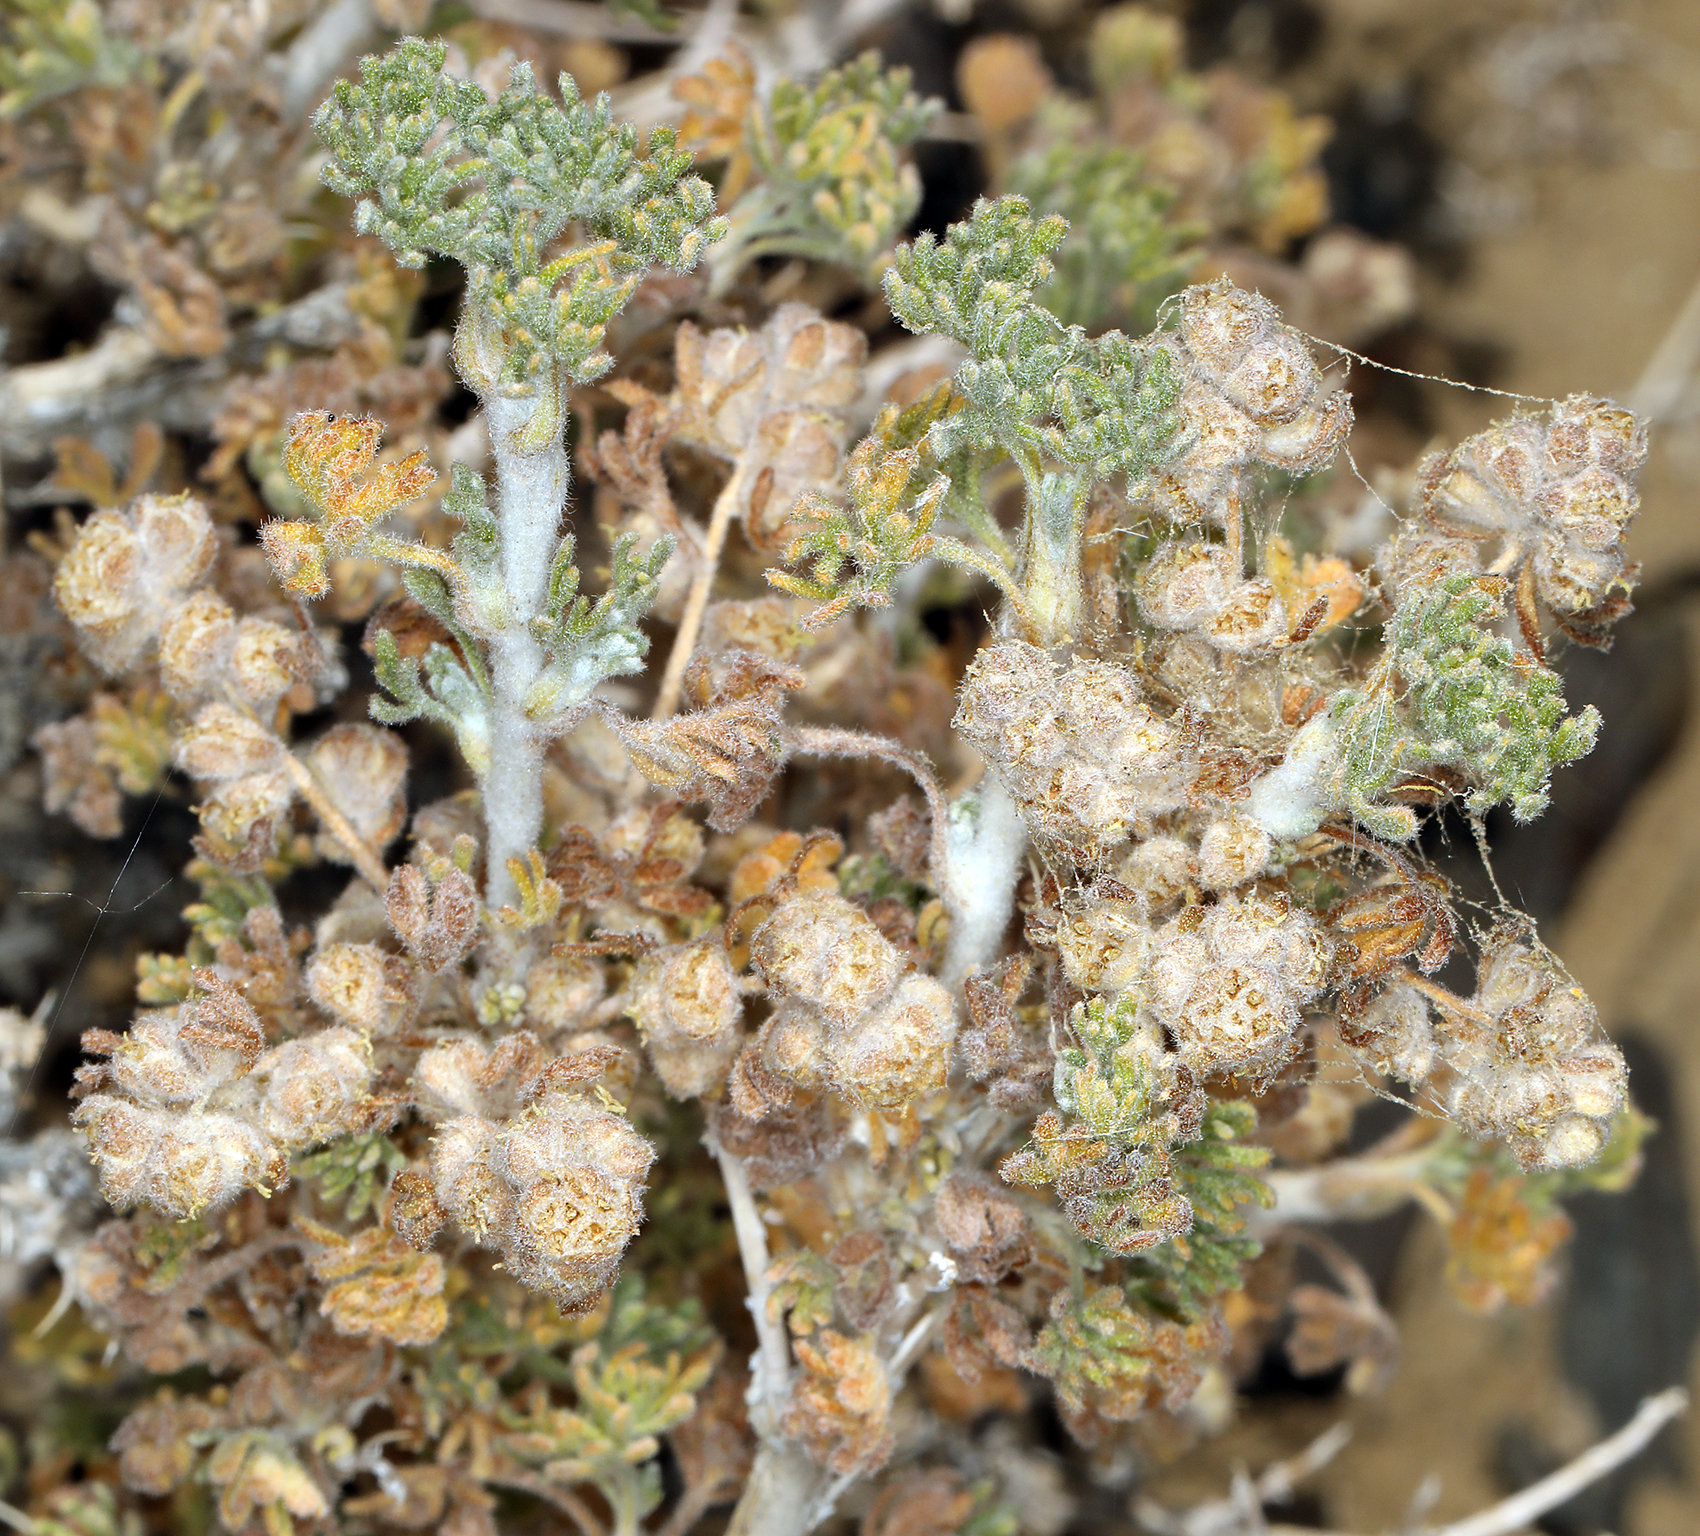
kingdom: Plantae
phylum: Tracheophyta
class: Magnoliopsida
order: Asterales
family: Asteraceae
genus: Artemisia
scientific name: Artemisia spinescens
